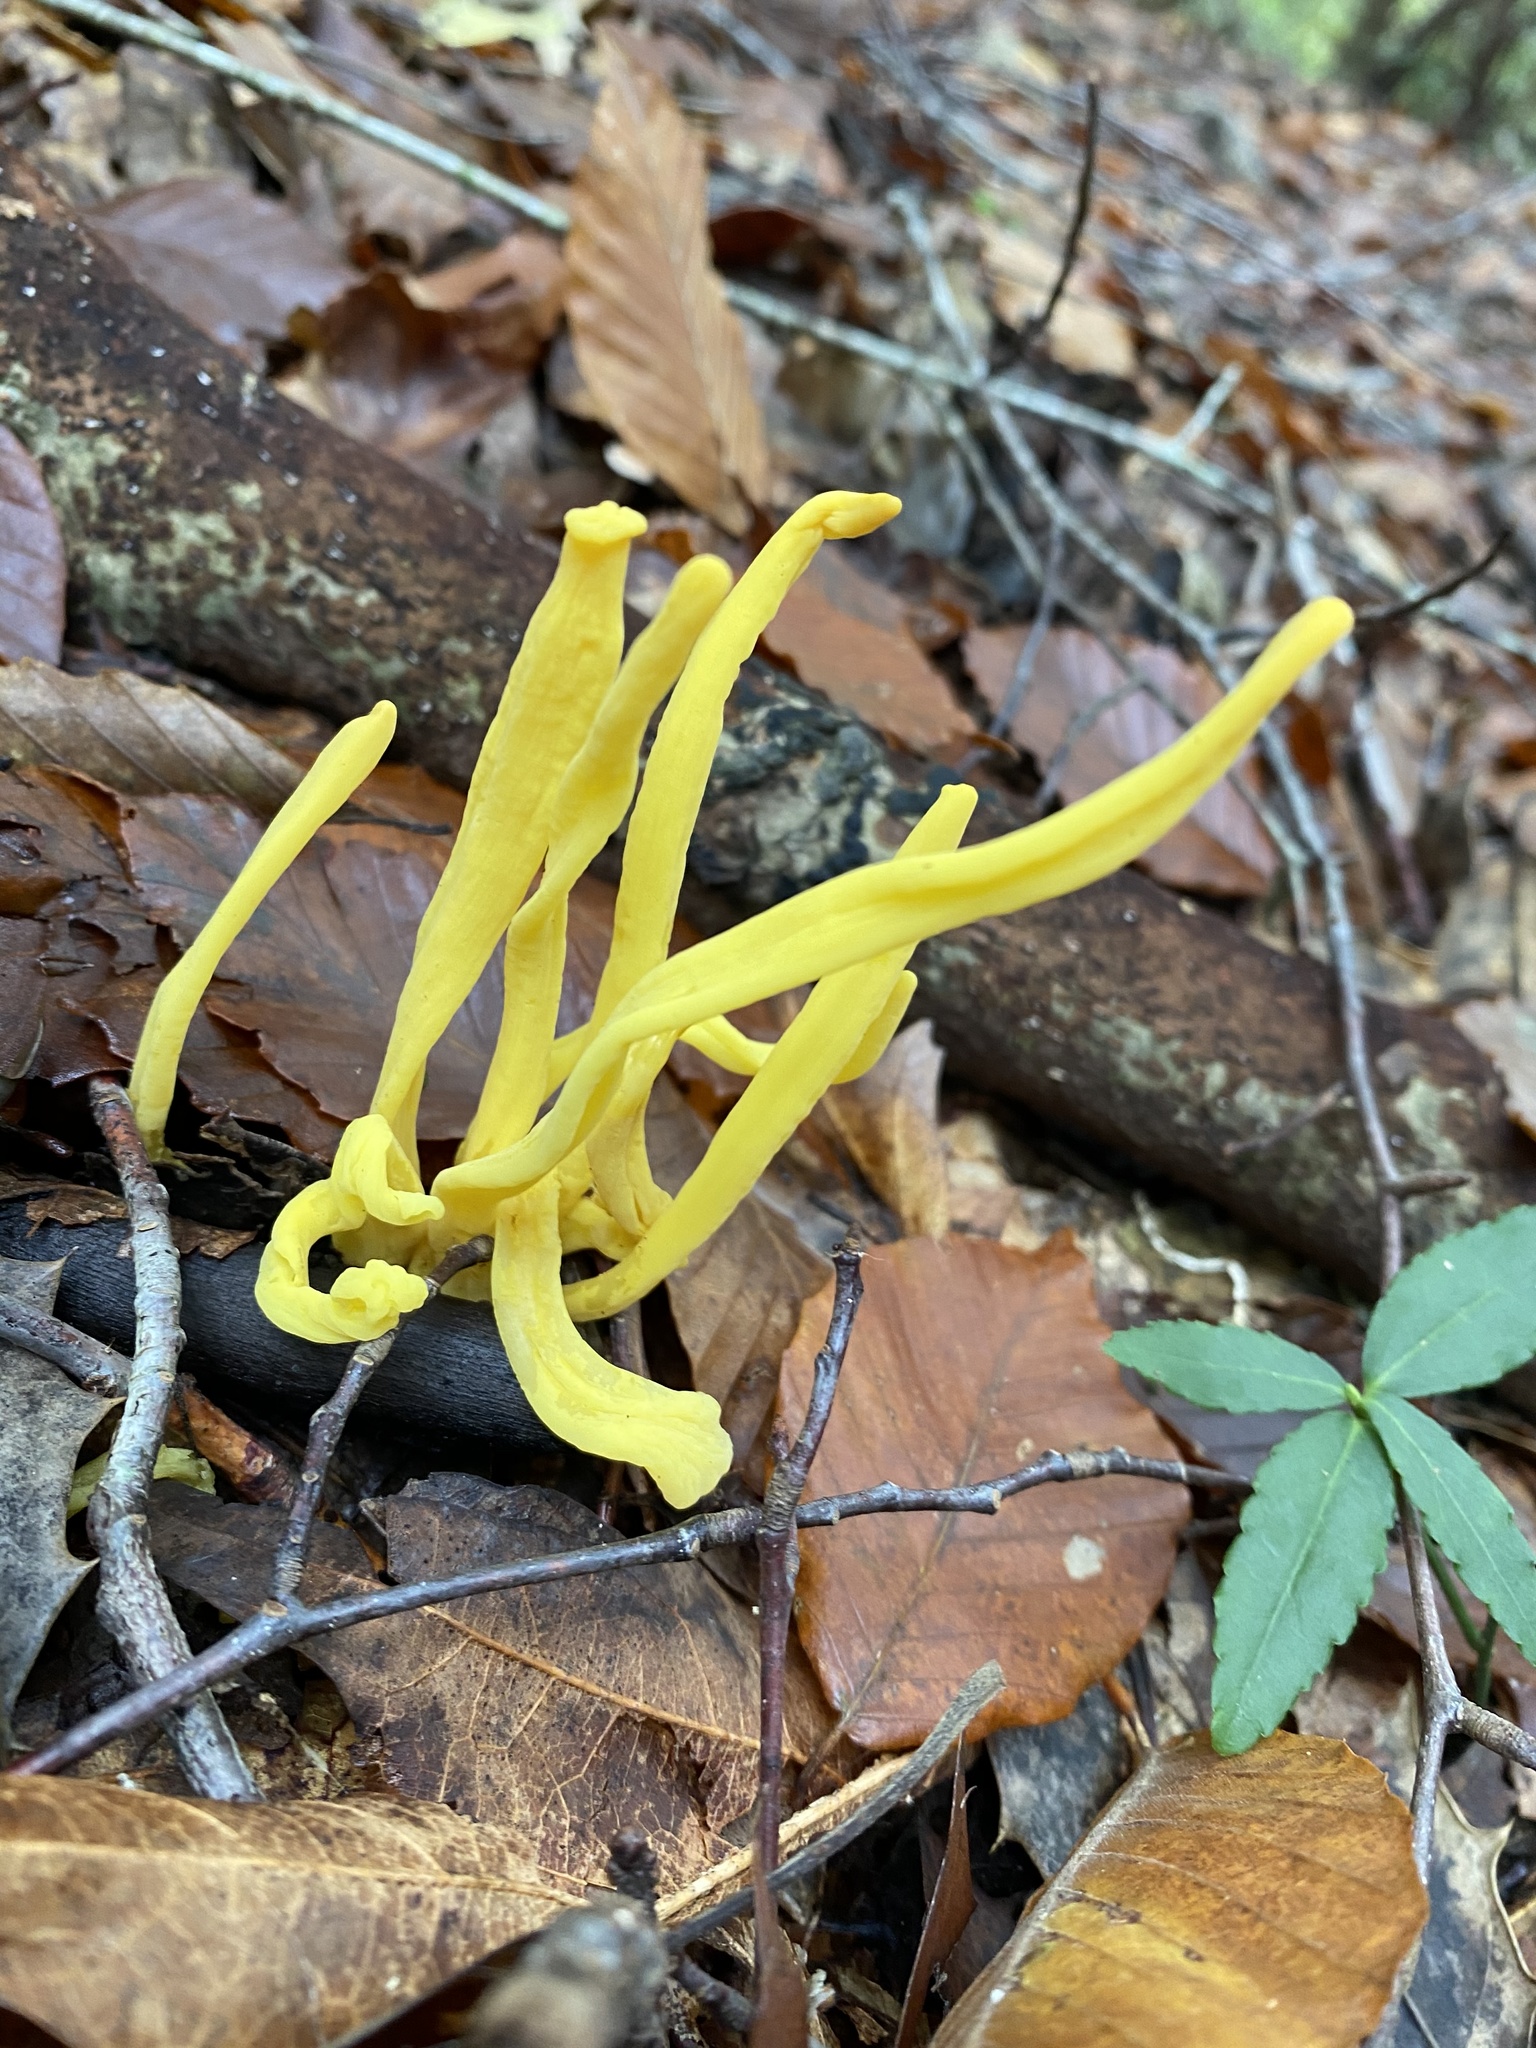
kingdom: Fungi
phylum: Basidiomycota
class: Agaricomycetes
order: Agaricales
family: Clavariaceae
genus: Clavulinopsis
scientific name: Clavulinopsis fusiformis
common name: Golden spindles
